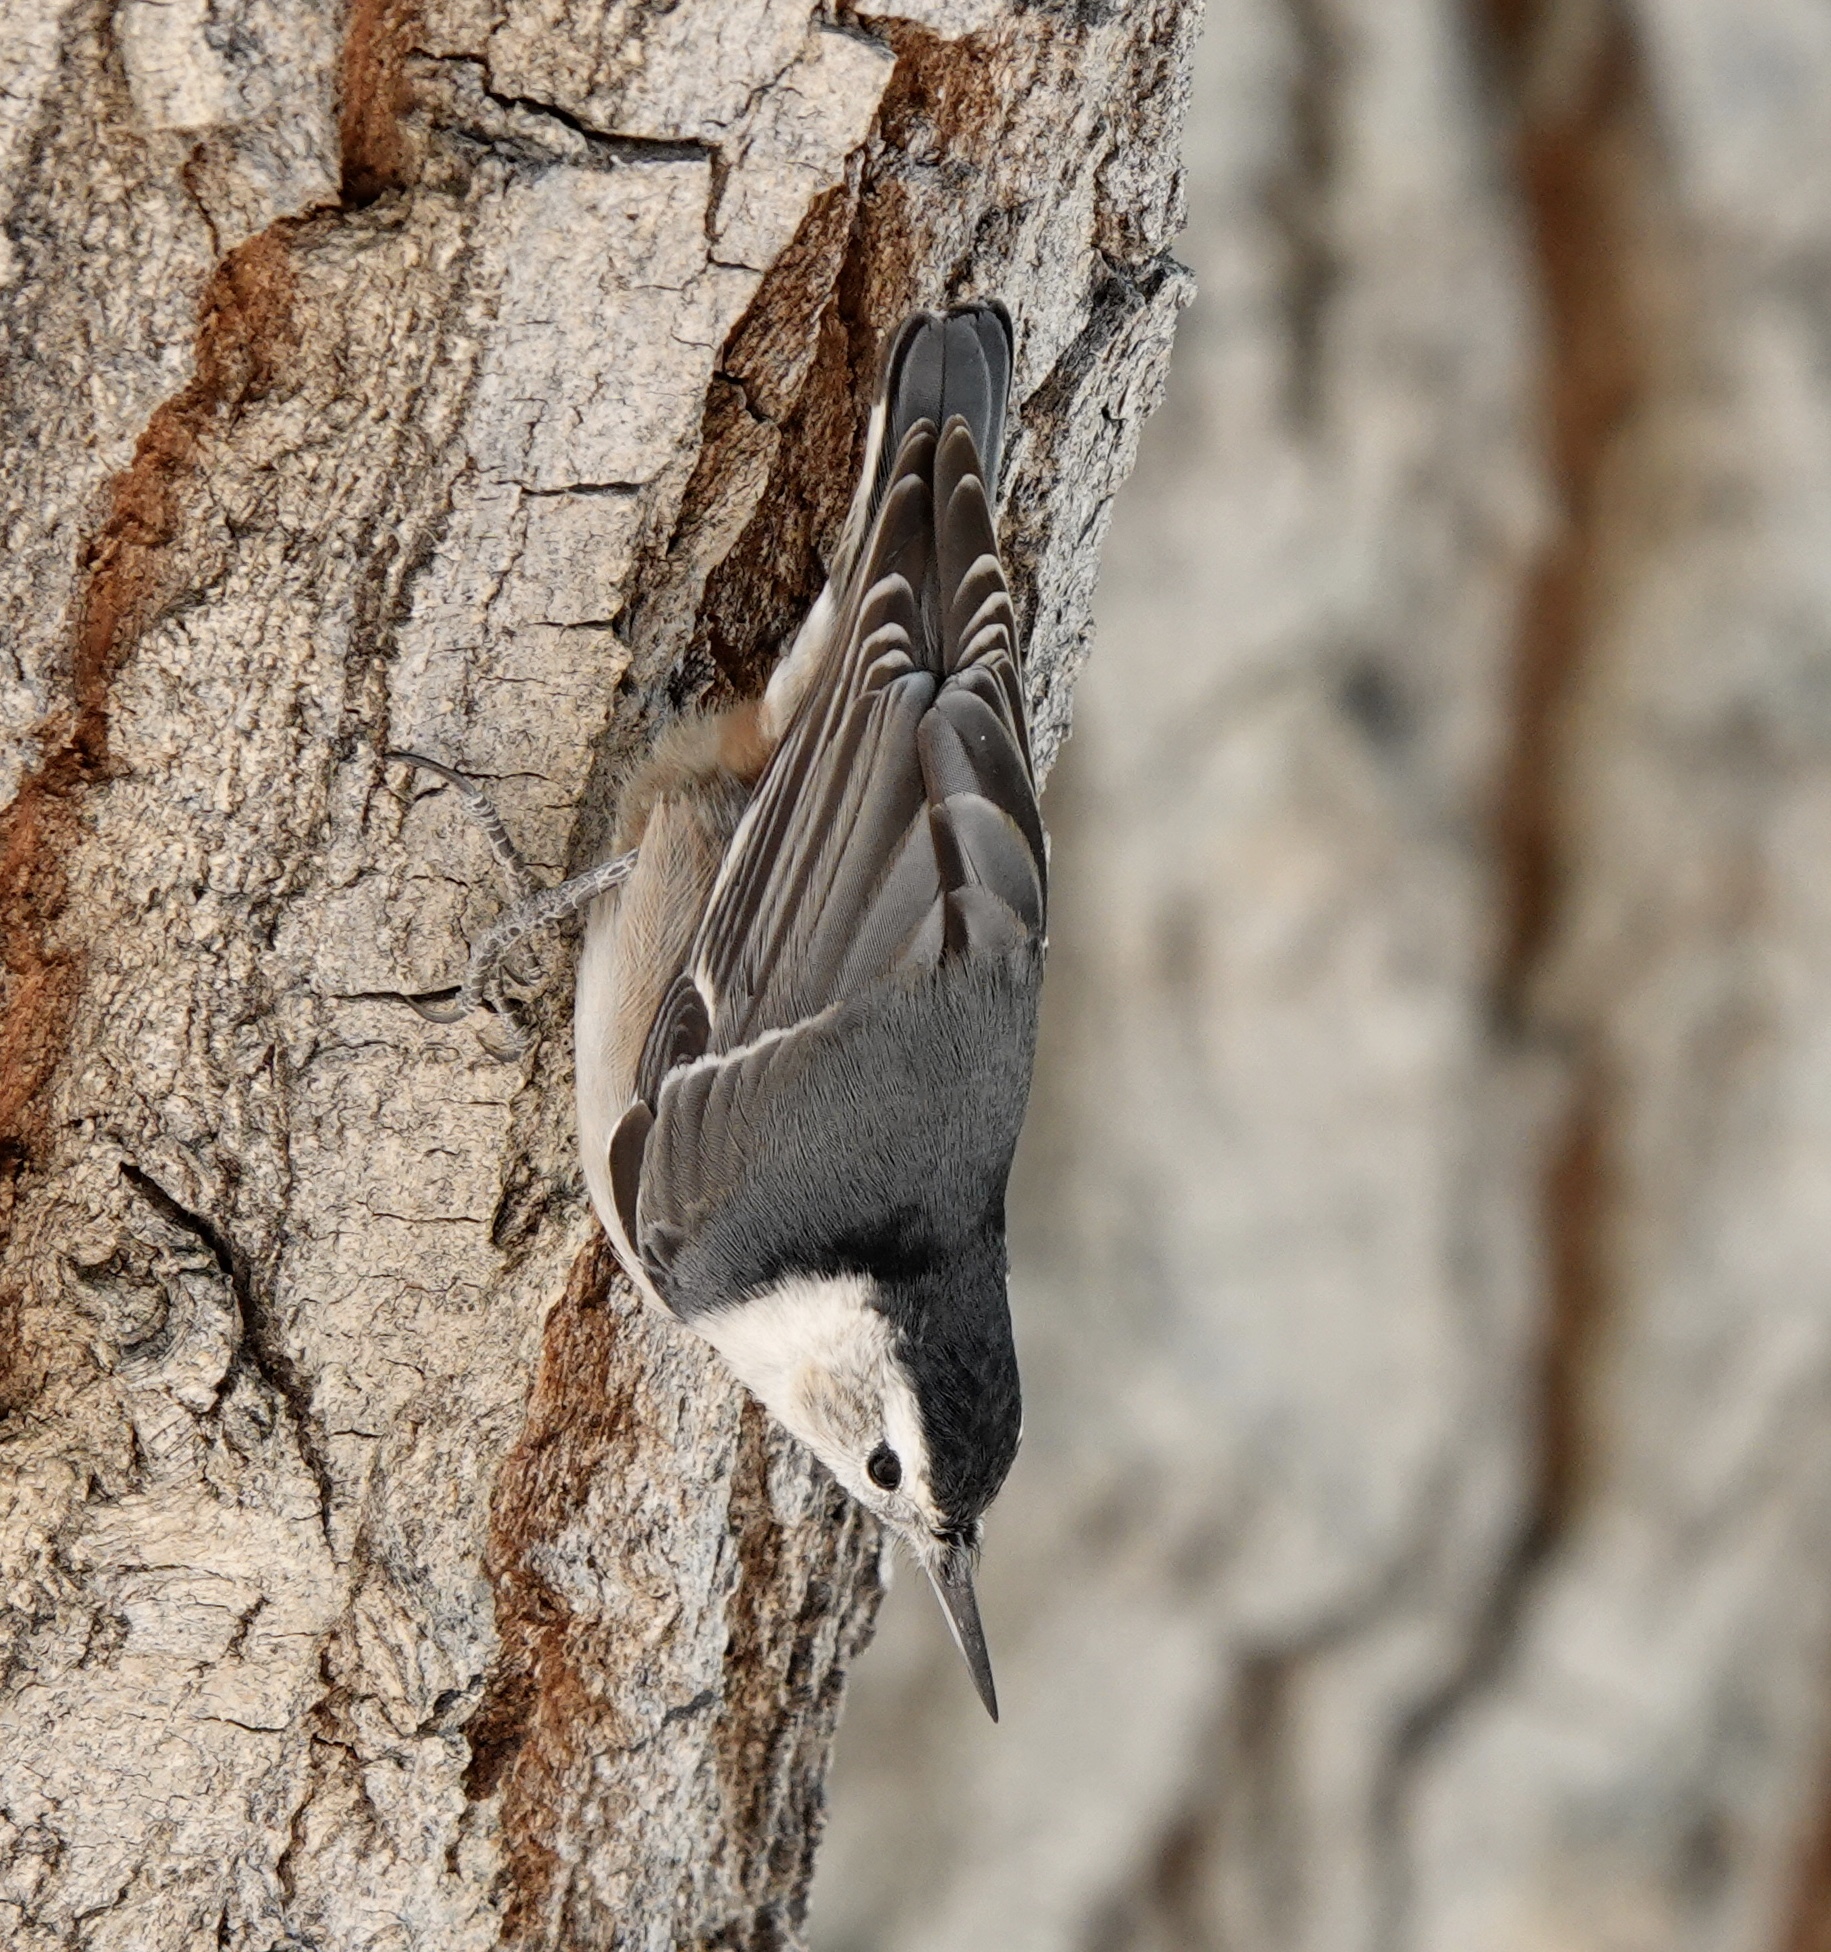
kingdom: Animalia
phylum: Chordata
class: Aves
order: Passeriformes
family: Sittidae
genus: Sitta
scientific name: Sitta carolinensis
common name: White-breasted nuthatch
